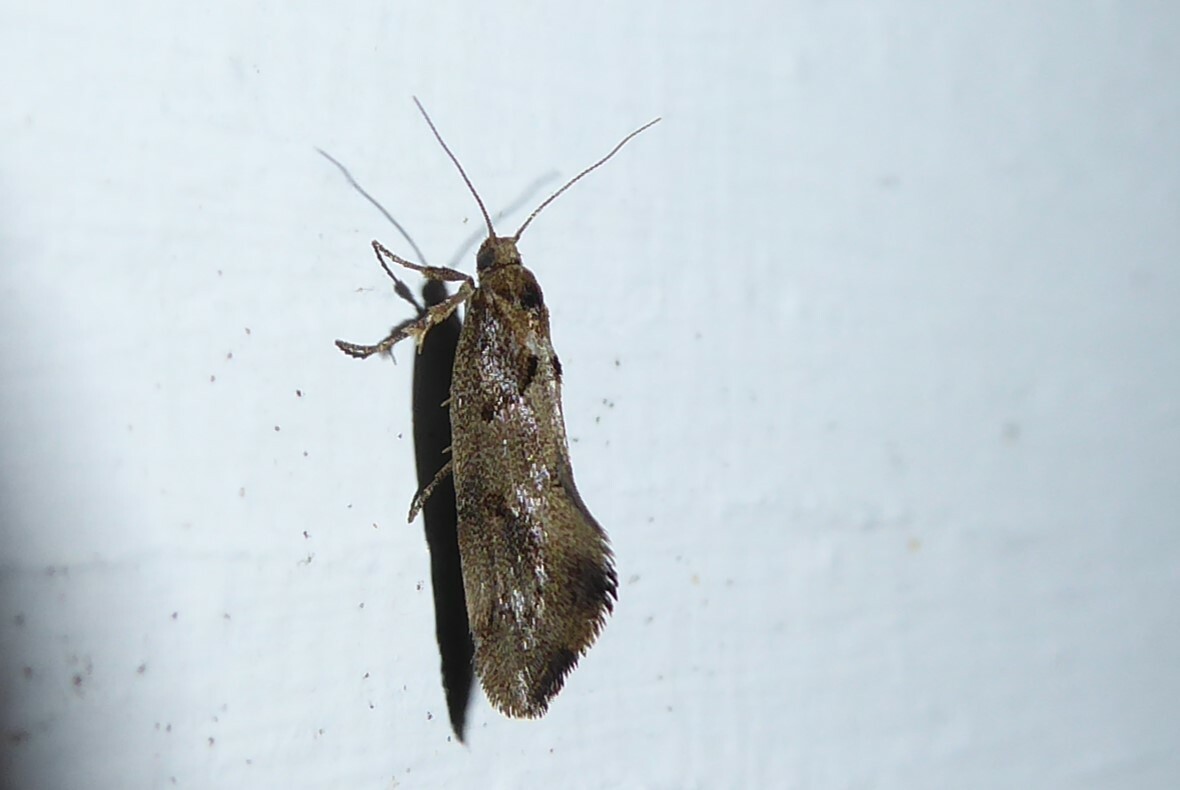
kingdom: Animalia
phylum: Arthropoda
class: Insecta
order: Lepidoptera
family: Oecophoridae
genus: Tingena
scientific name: Tingena brachyacma
